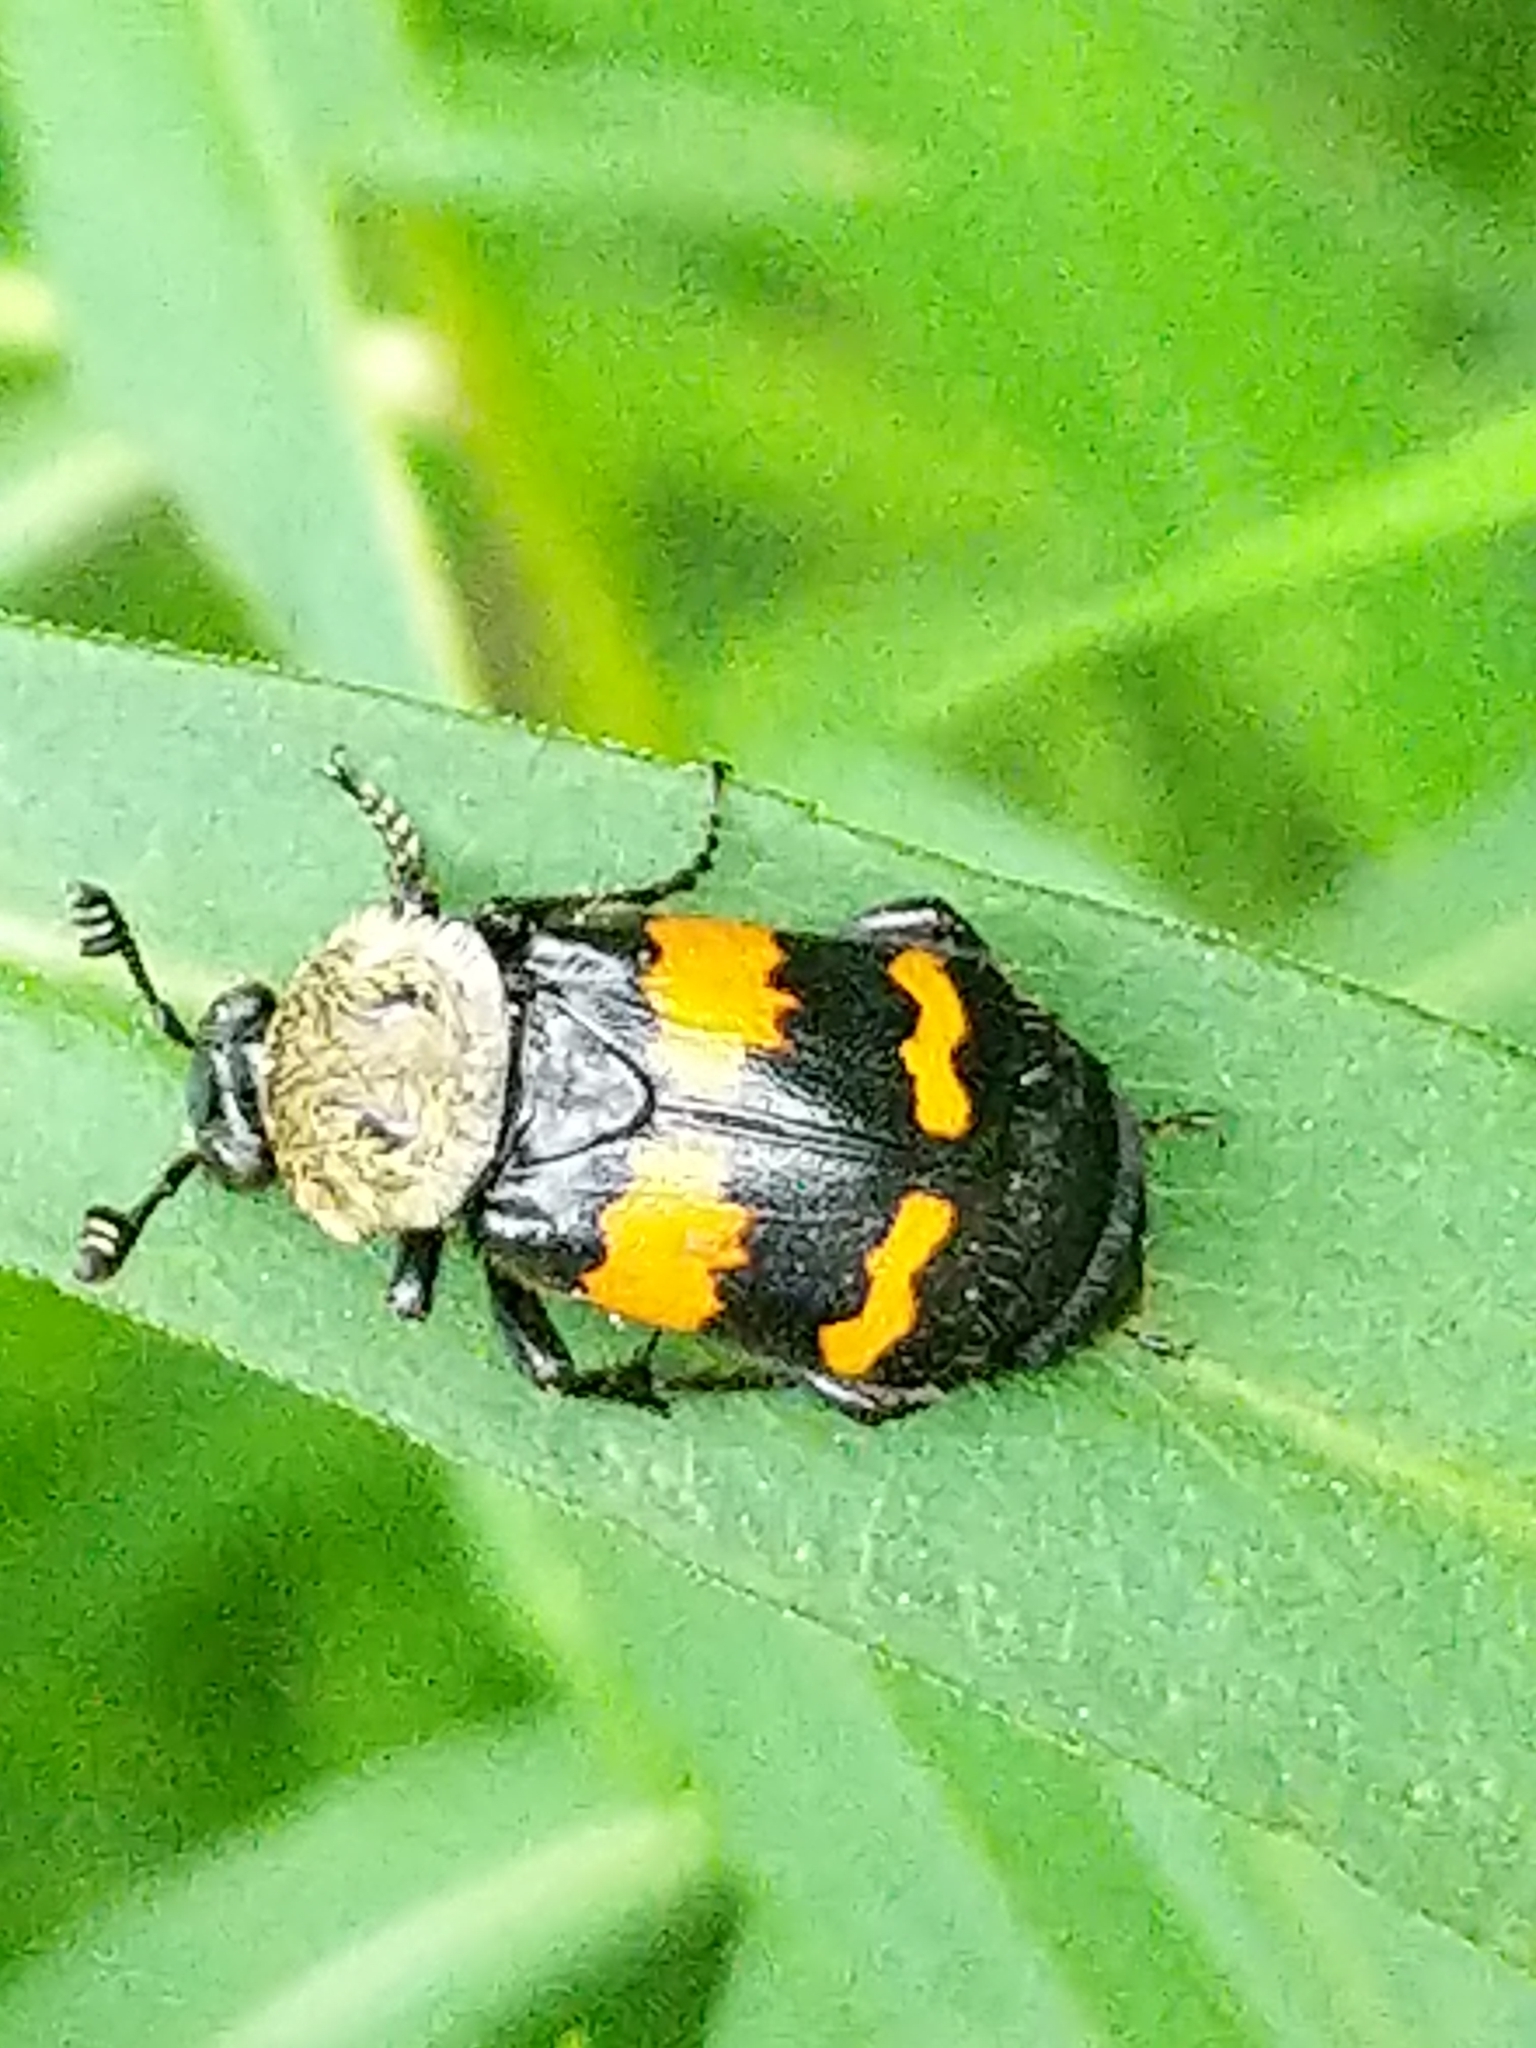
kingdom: Animalia
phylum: Arthropoda
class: Insecta
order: Coleoptera
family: Staphylinidae
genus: Nicrophorus
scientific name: Nicrophorus tomentosus
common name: Tomentose burying beetle
